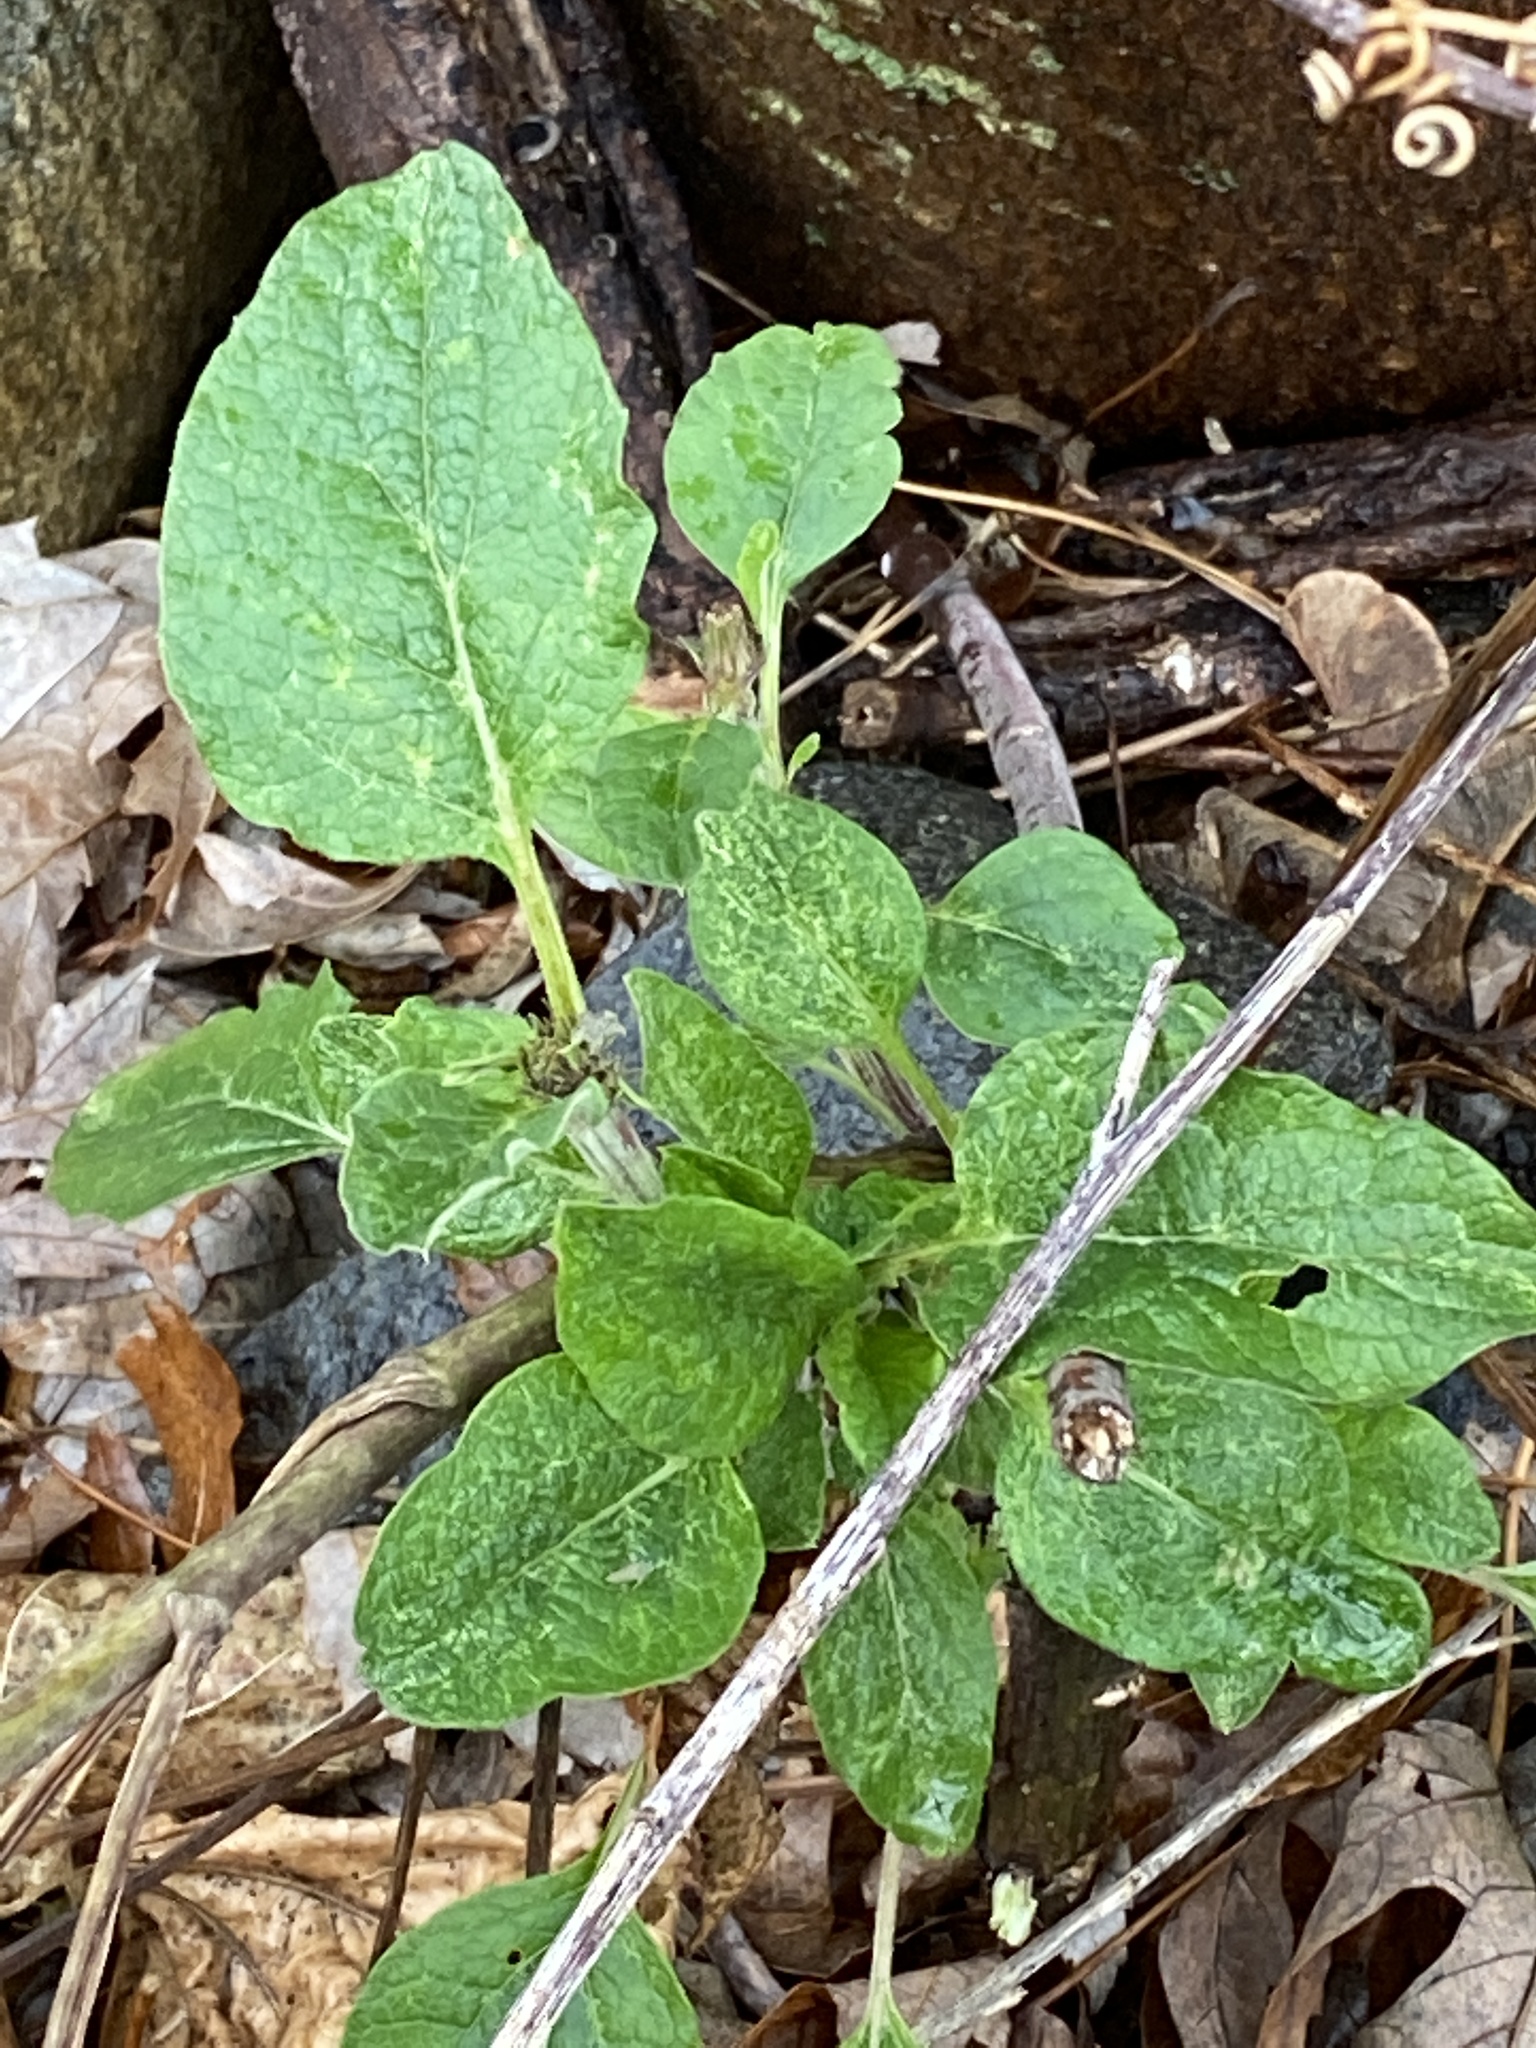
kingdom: Plantae
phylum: Tracheophyta
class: Magnoliopsida
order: Asterales
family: Asteraceae
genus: Arctium
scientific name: Arctium
